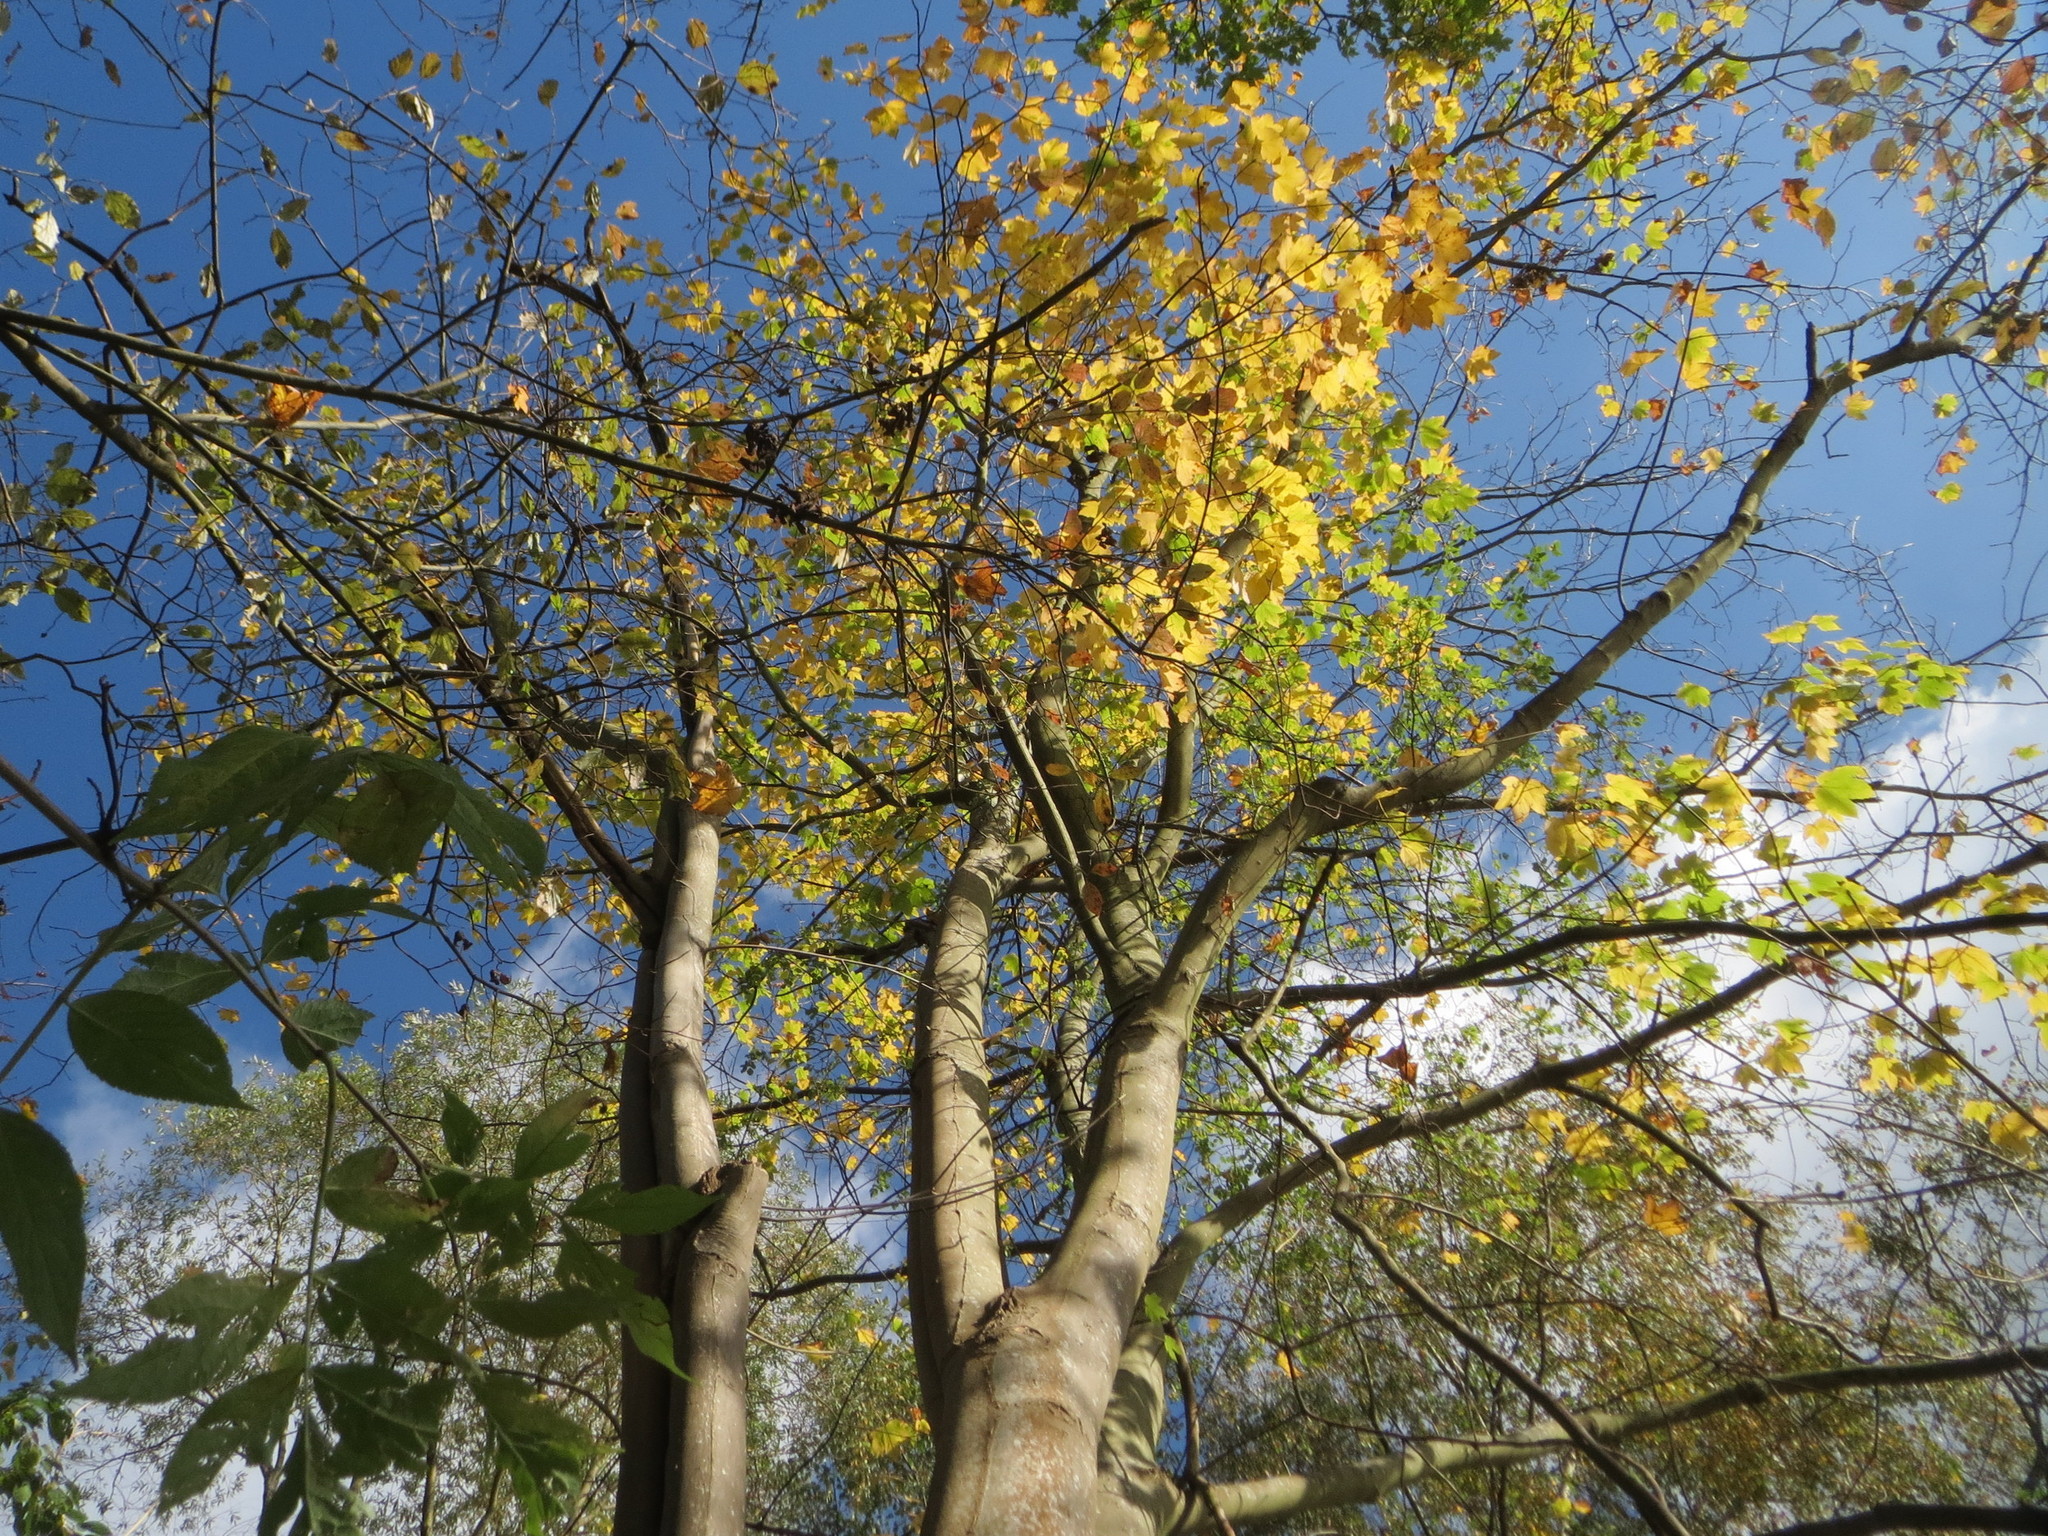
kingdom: Plantae
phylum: Tracheophyta
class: Magnoliopsida
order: Sapindales
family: Sapindaceae
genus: Acer
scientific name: Acer pseudoplatanus
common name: Sycamore
